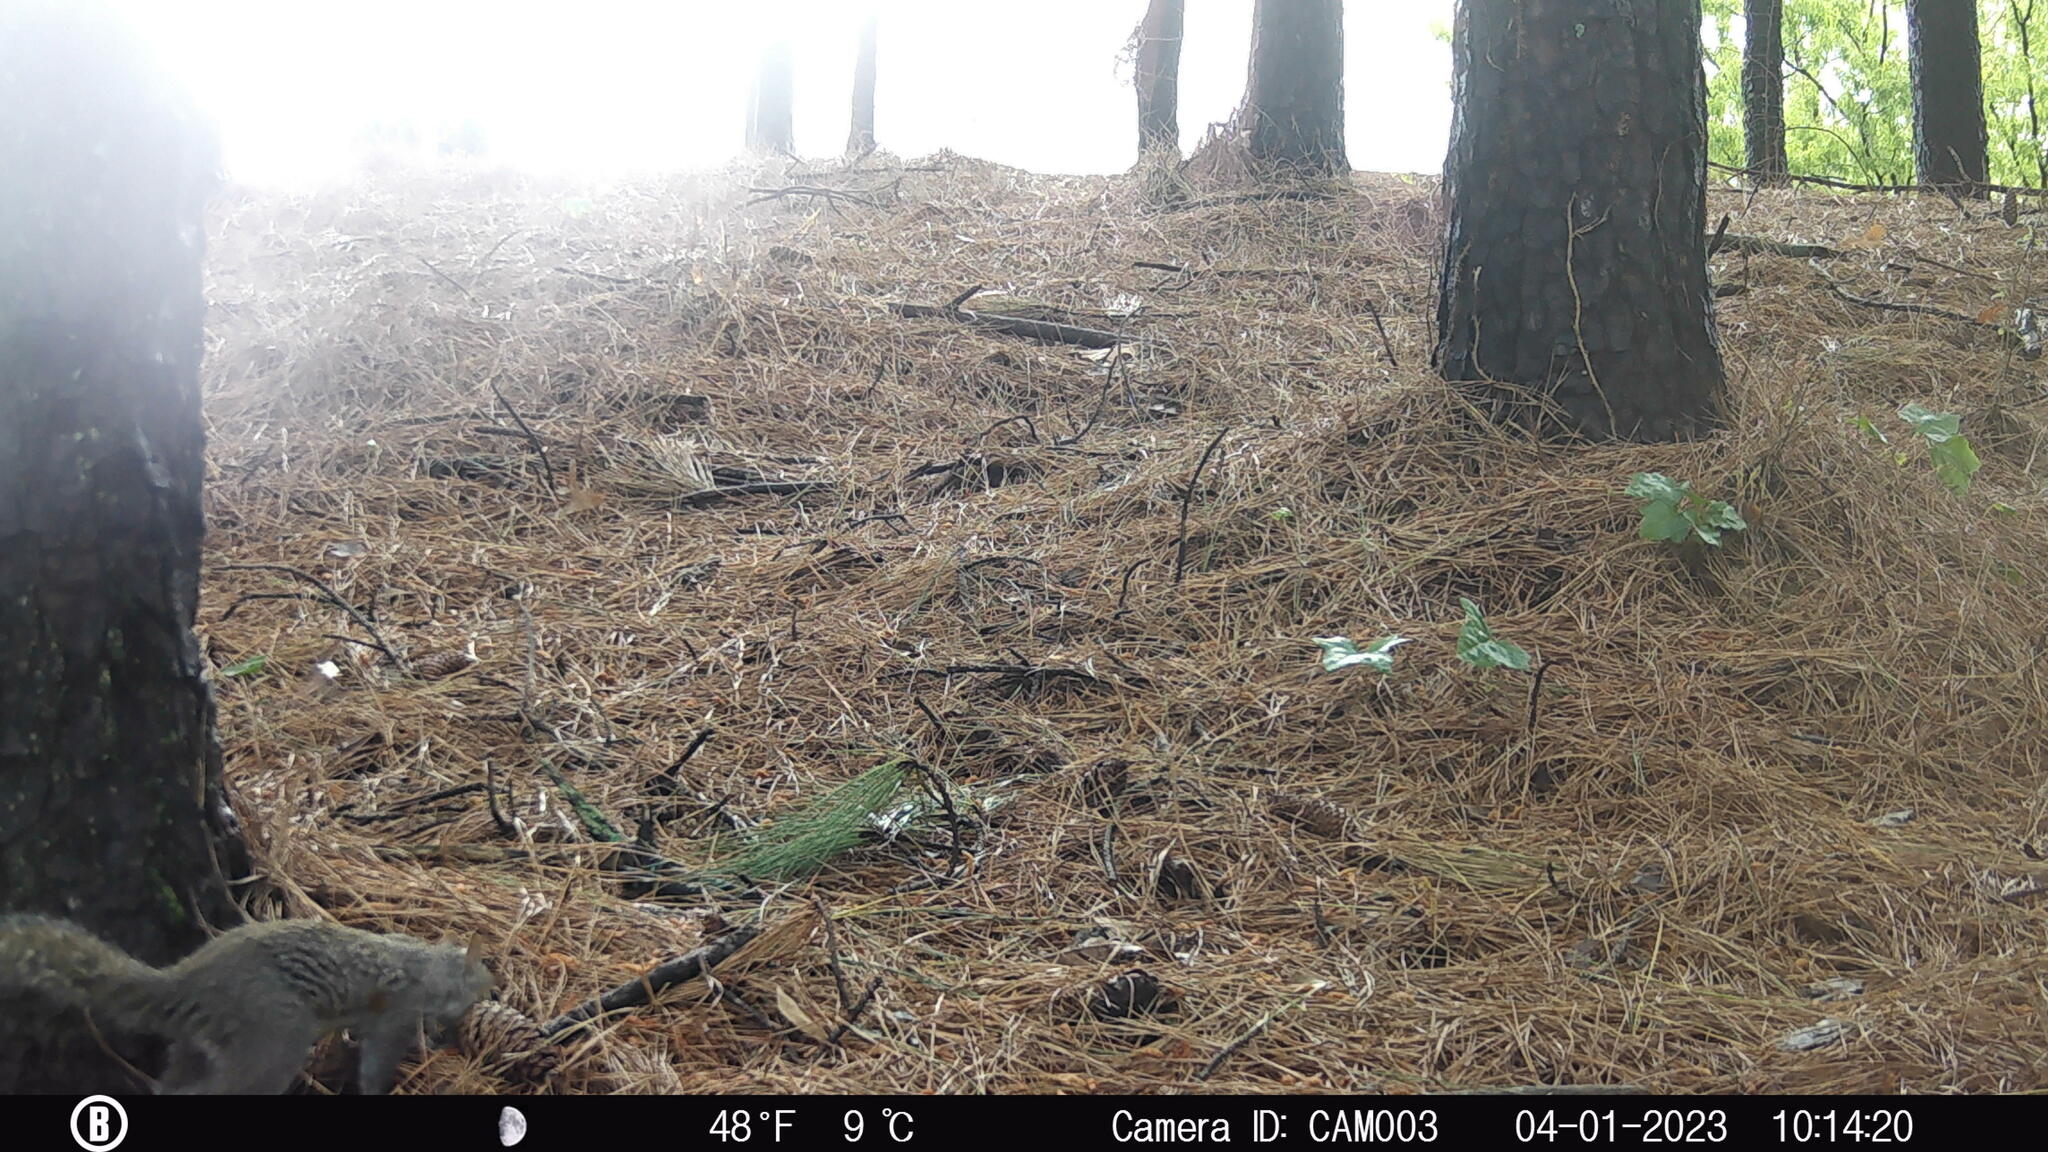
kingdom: Animalia
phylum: Chordata
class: Mammalia
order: Rodentia
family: Sciuridae
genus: Sciurus
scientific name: Sciurus carolinensis
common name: Eastern gray squirrel
